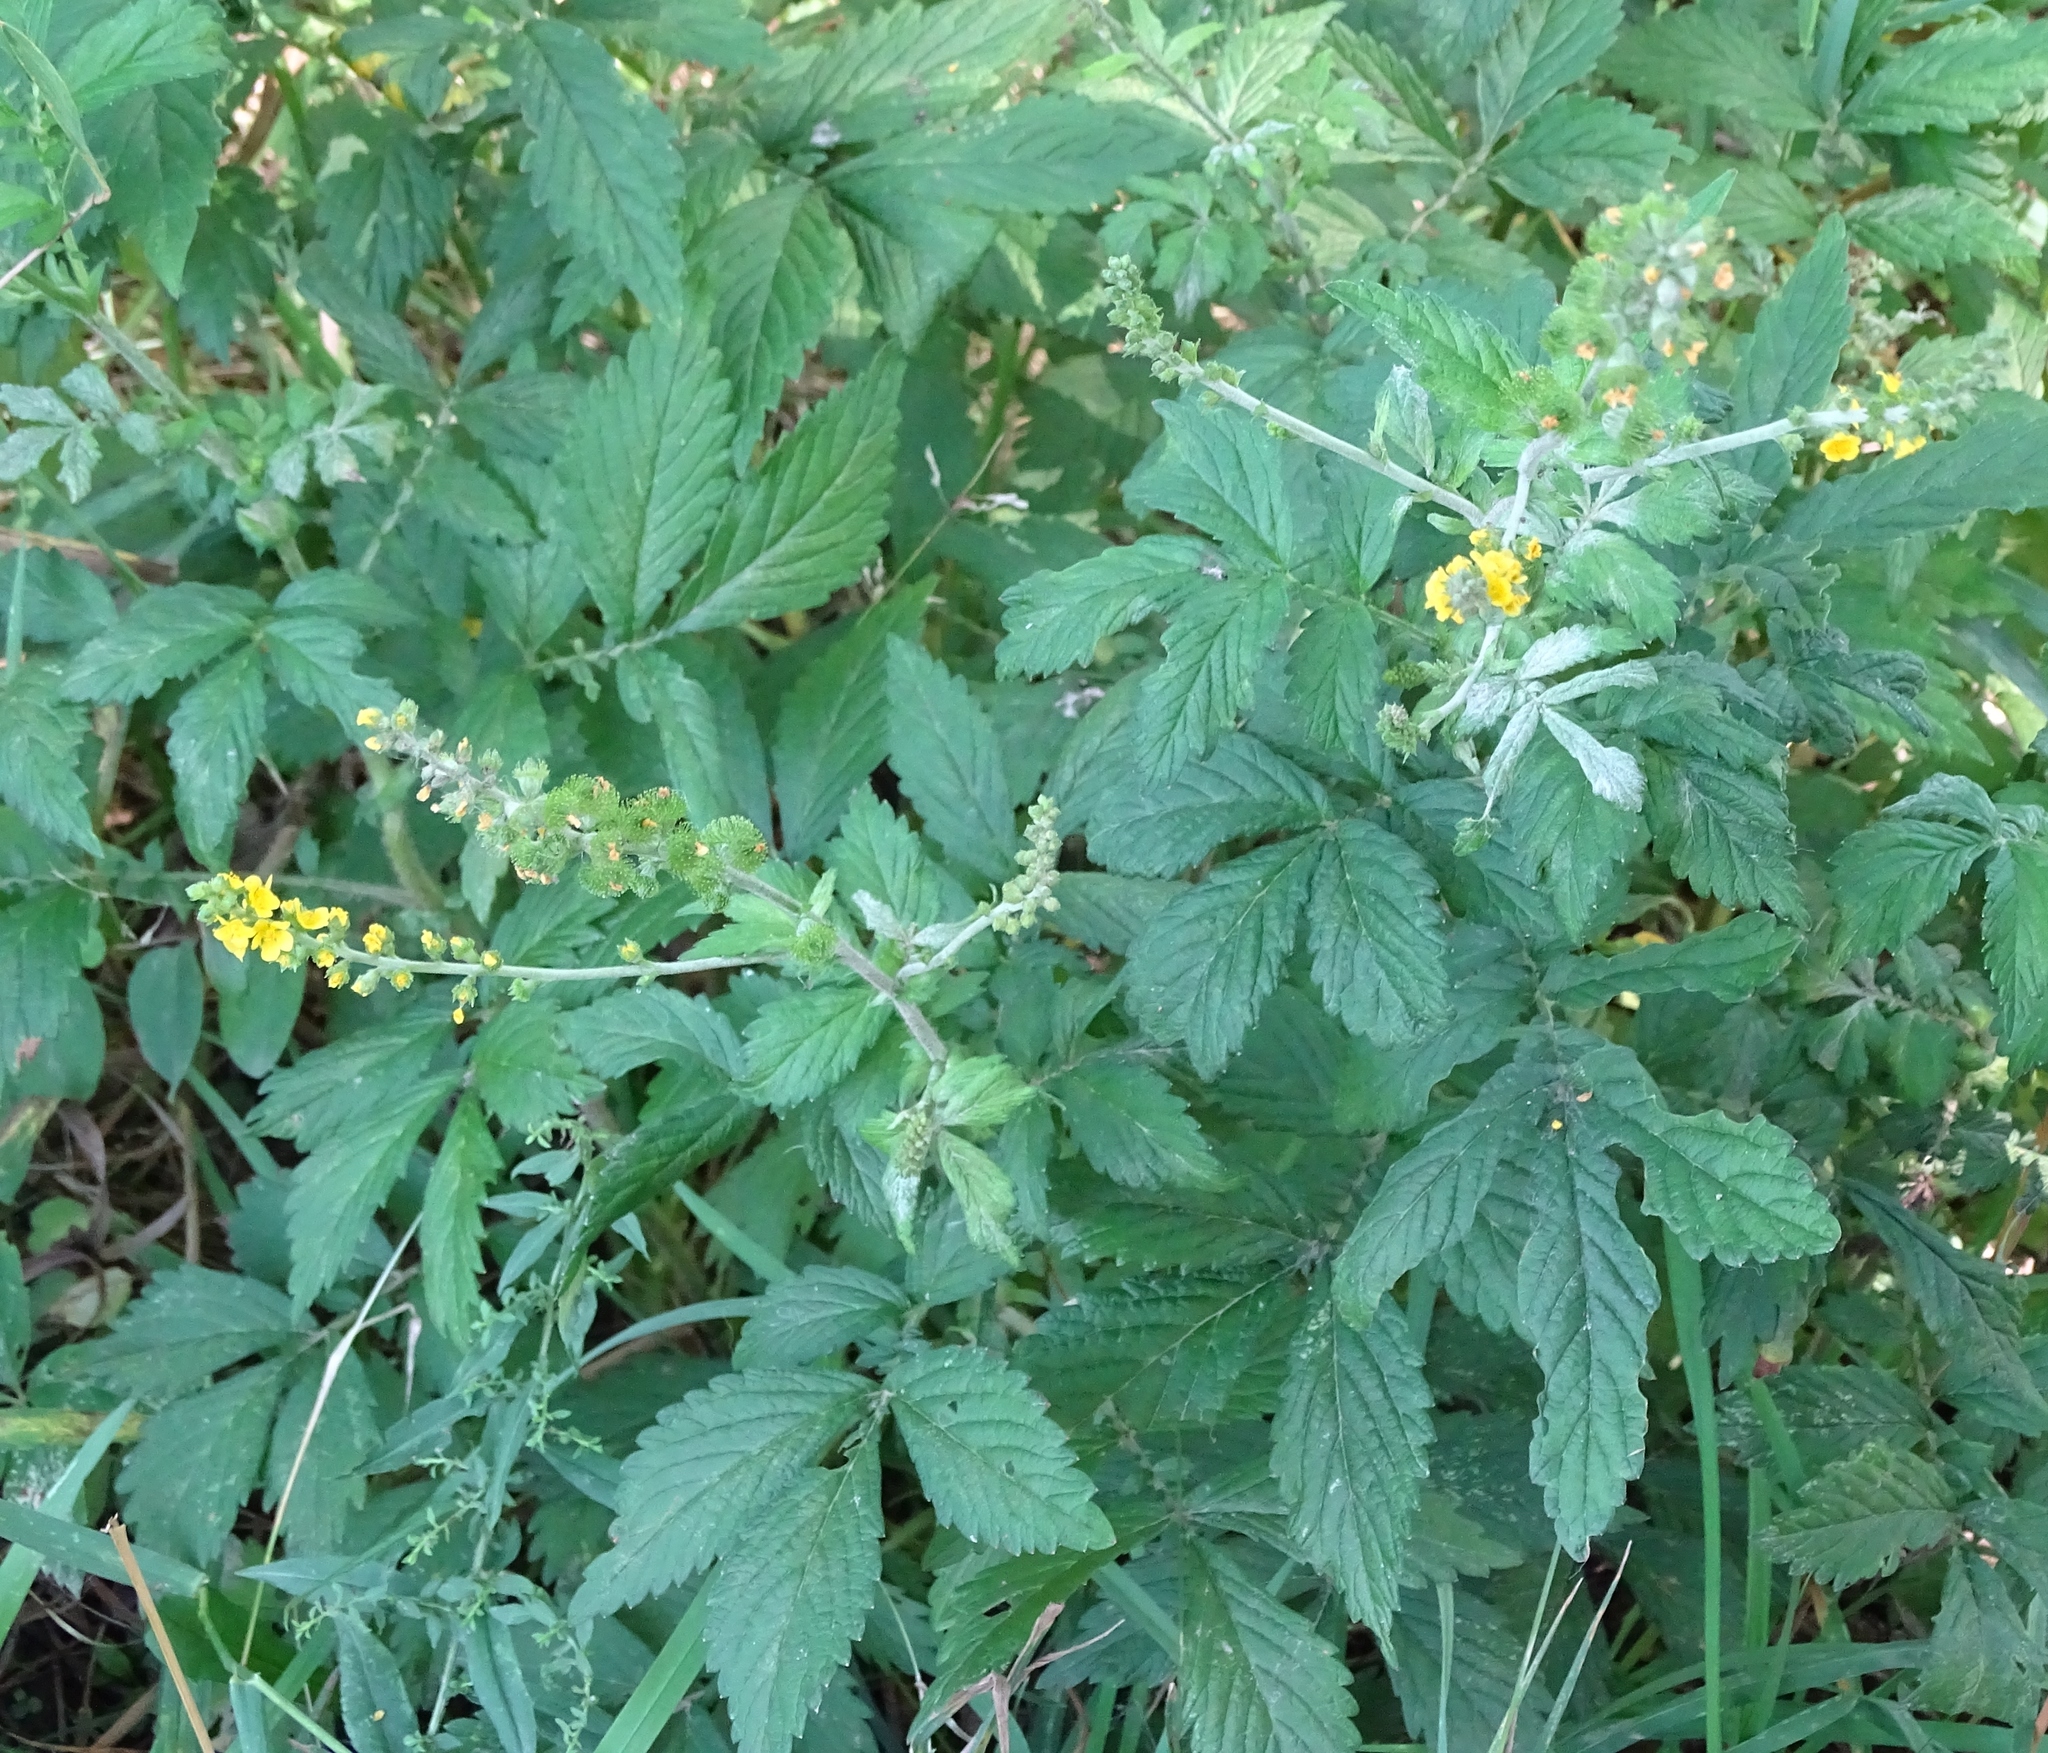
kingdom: Plantae
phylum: Tracheophyta
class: Magnoliopsida
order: Rosales
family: Rosaceae
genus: Agrimonia
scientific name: Agrimonia gryposepala
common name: Common agrimony
